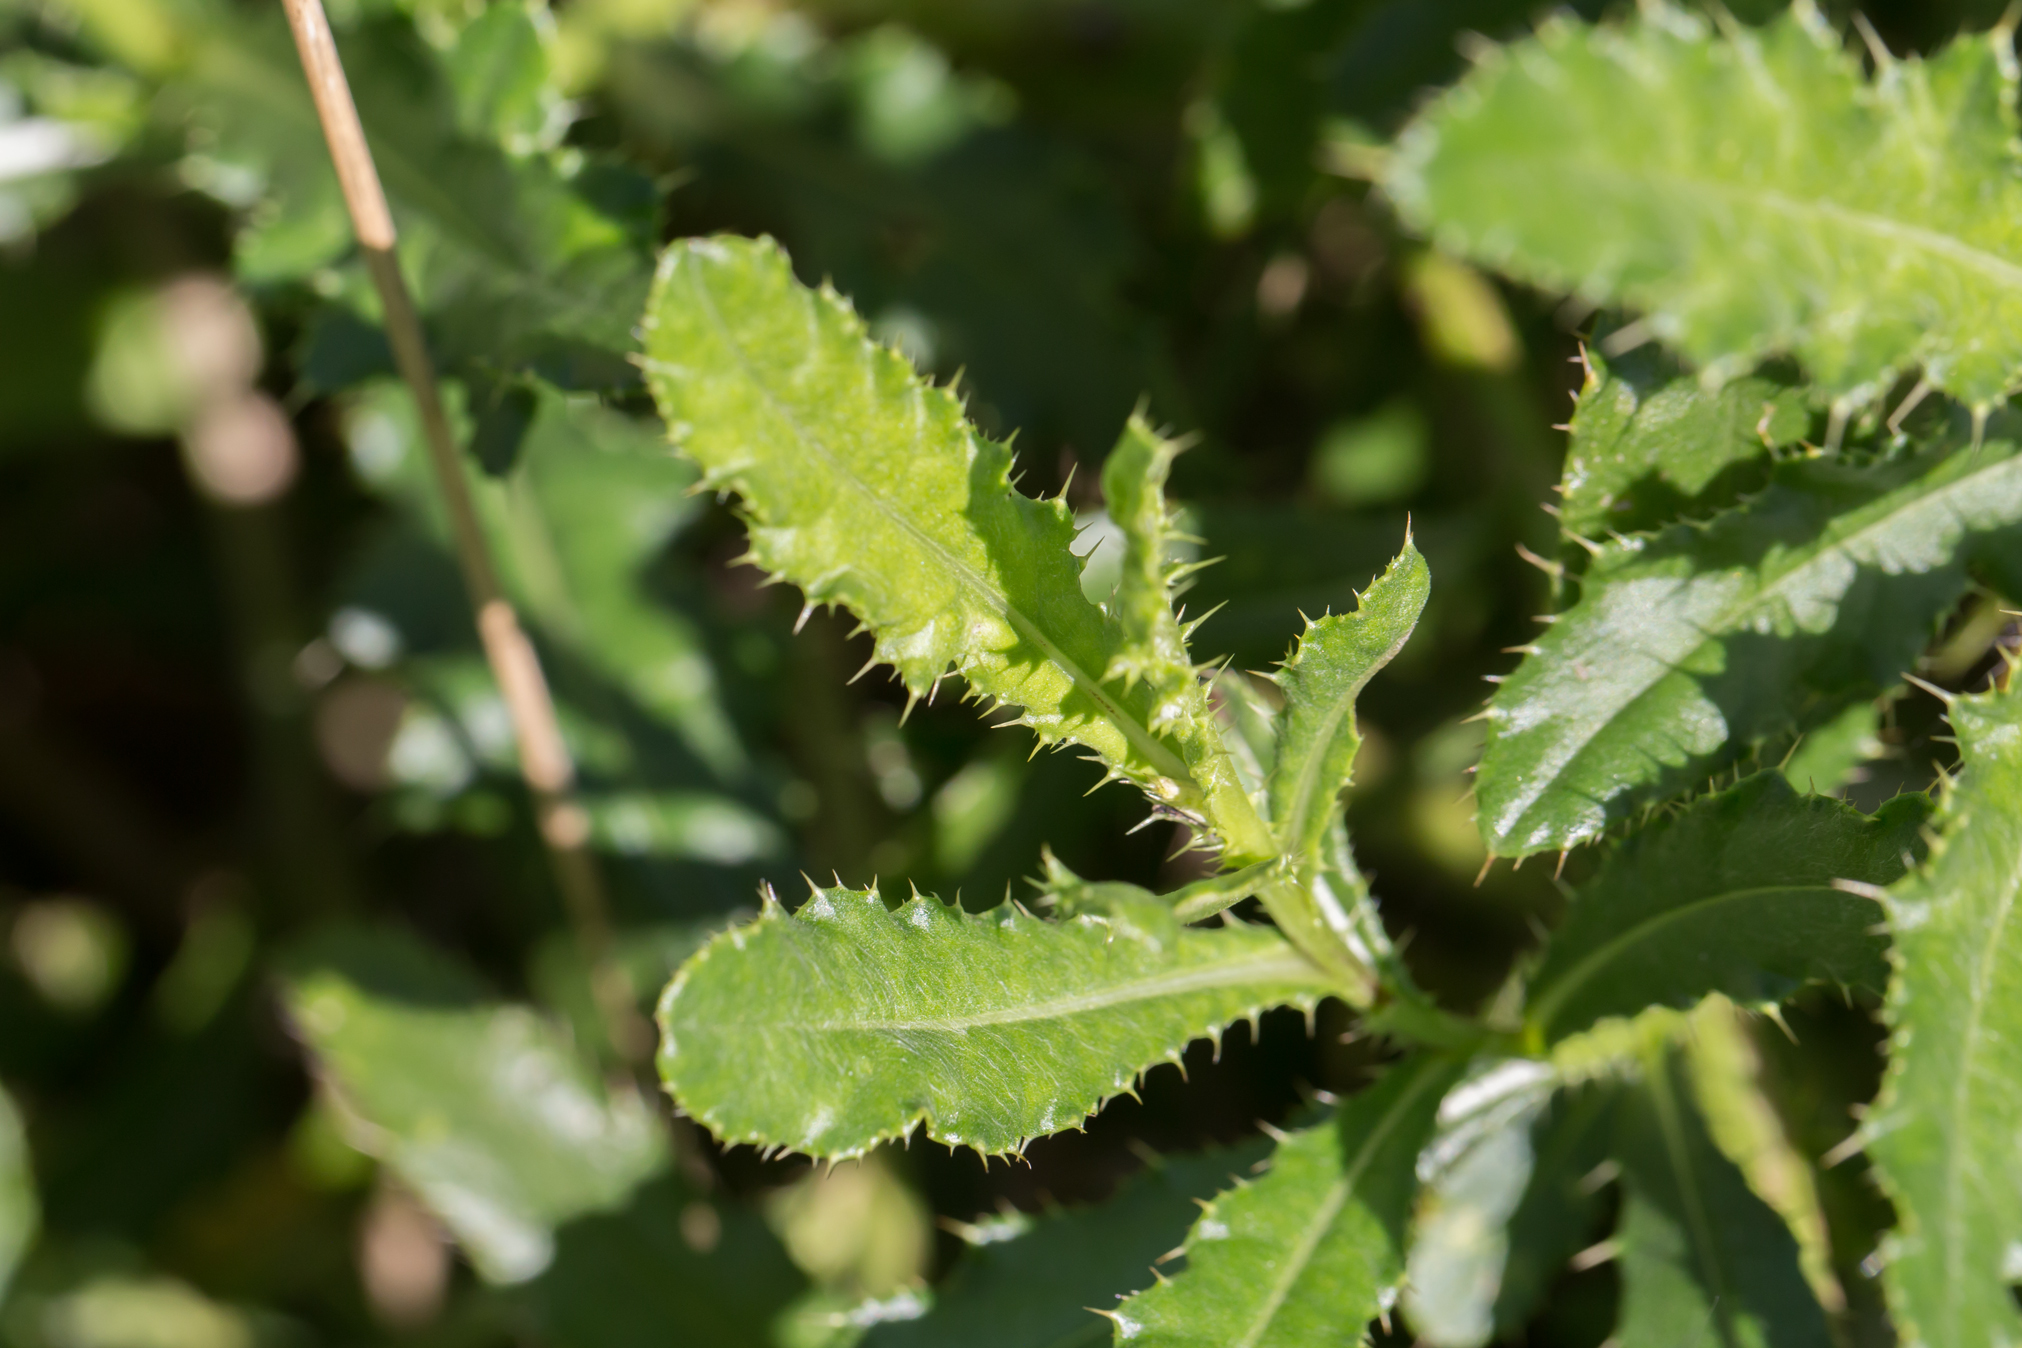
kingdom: Plantae
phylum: Tracheophyta
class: Magnoliopsida
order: Asterales
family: Asteraceae
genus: Cirsium
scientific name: Cirsium arvense
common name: Creeping thistle
